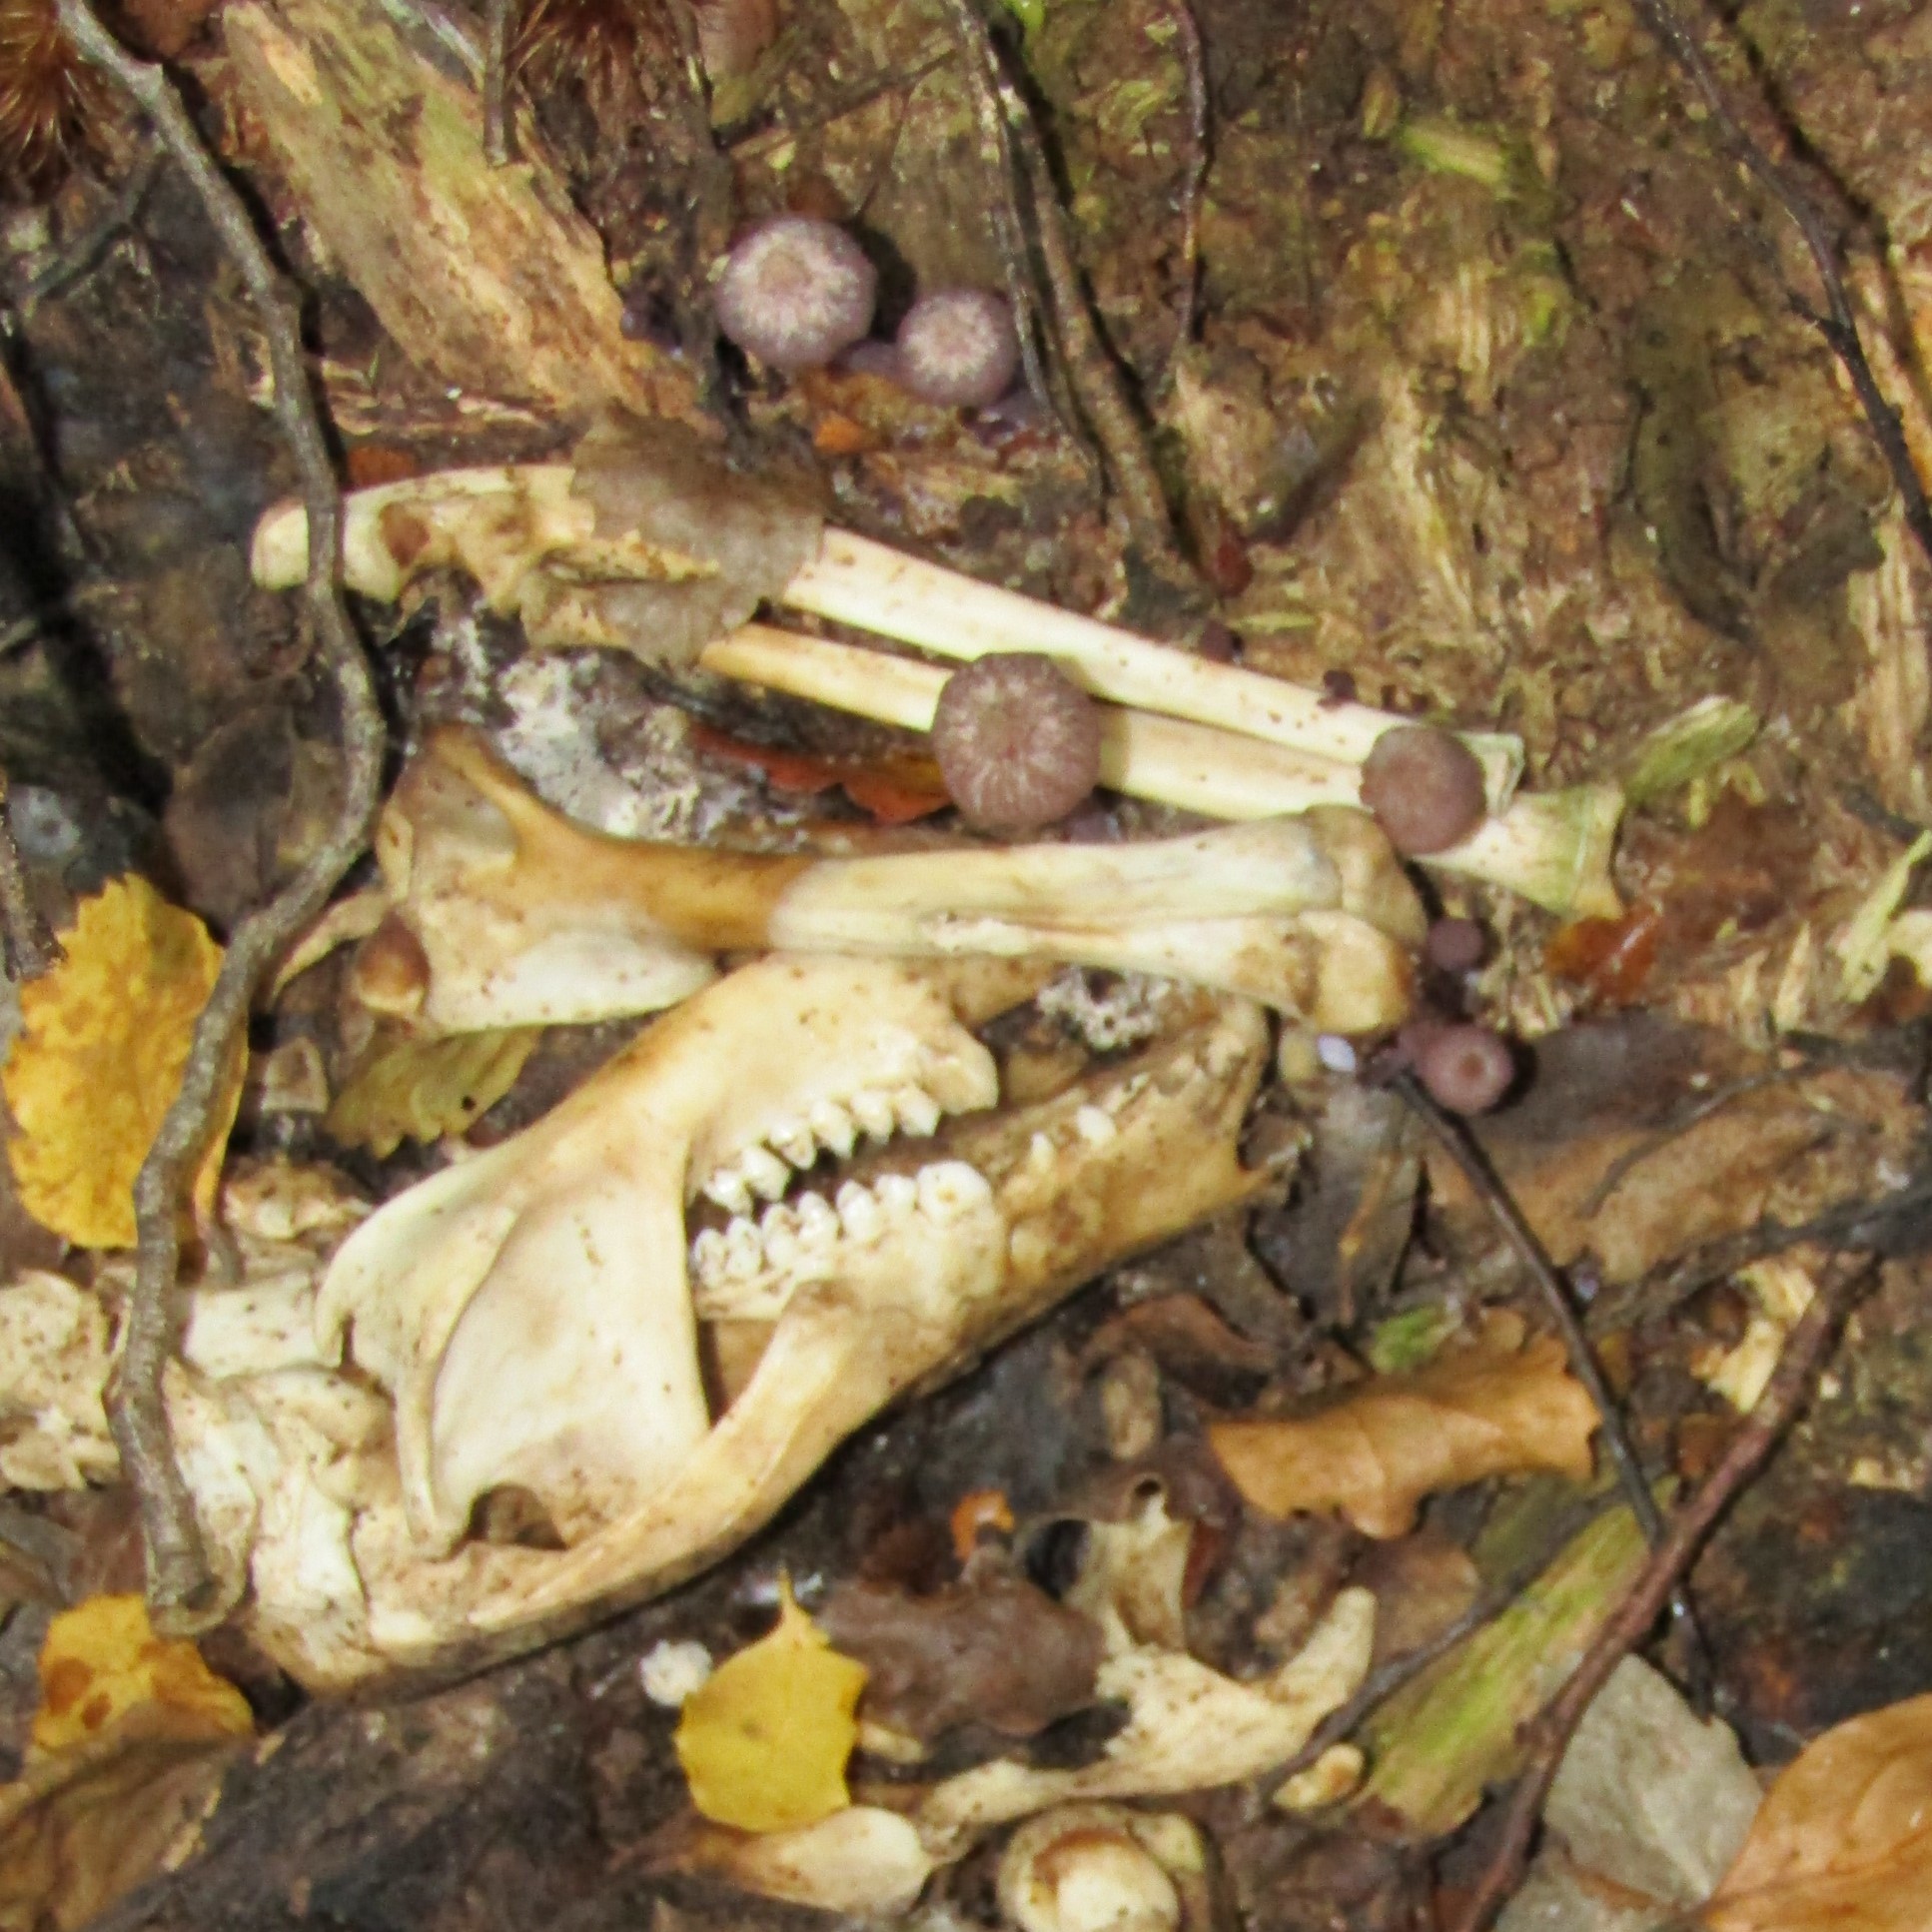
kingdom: Fungi
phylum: Basidiomycota
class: Agaricomycetes
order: Agaricales
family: Hydnangiaceae
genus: Laccaria
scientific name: Laccaria masoniae
